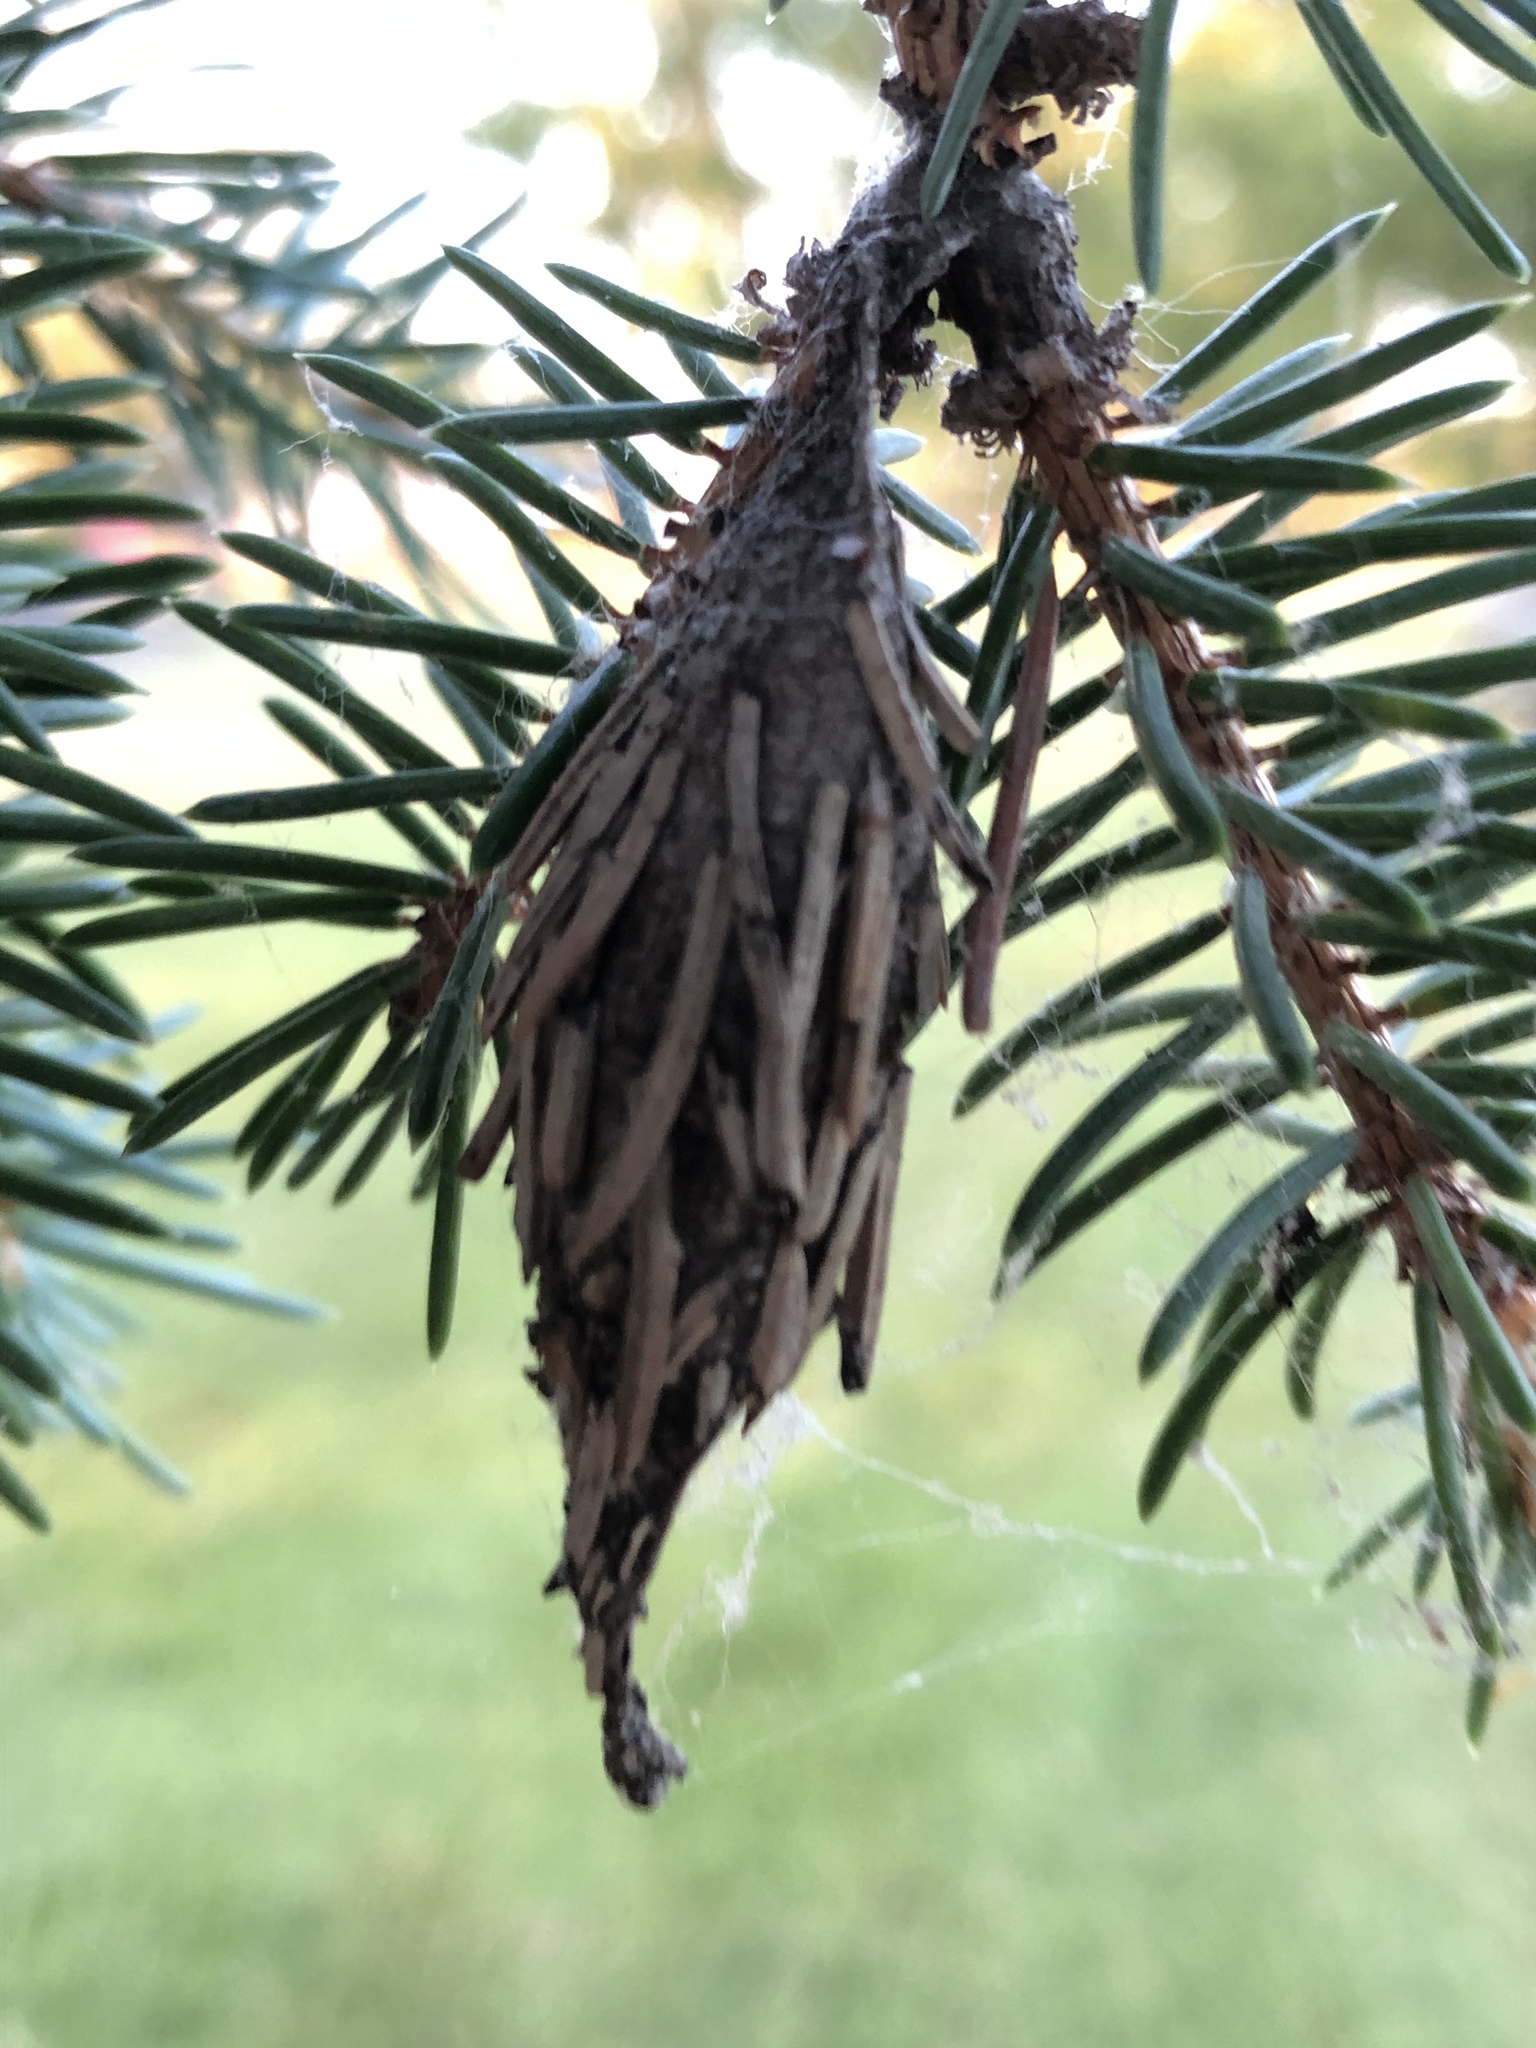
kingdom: Animalia
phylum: Arthropoda
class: Insecta
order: Lepidoptera
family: Psychidae
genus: Thyridopteryx
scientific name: Thyridopteryx ephemeraeformis
